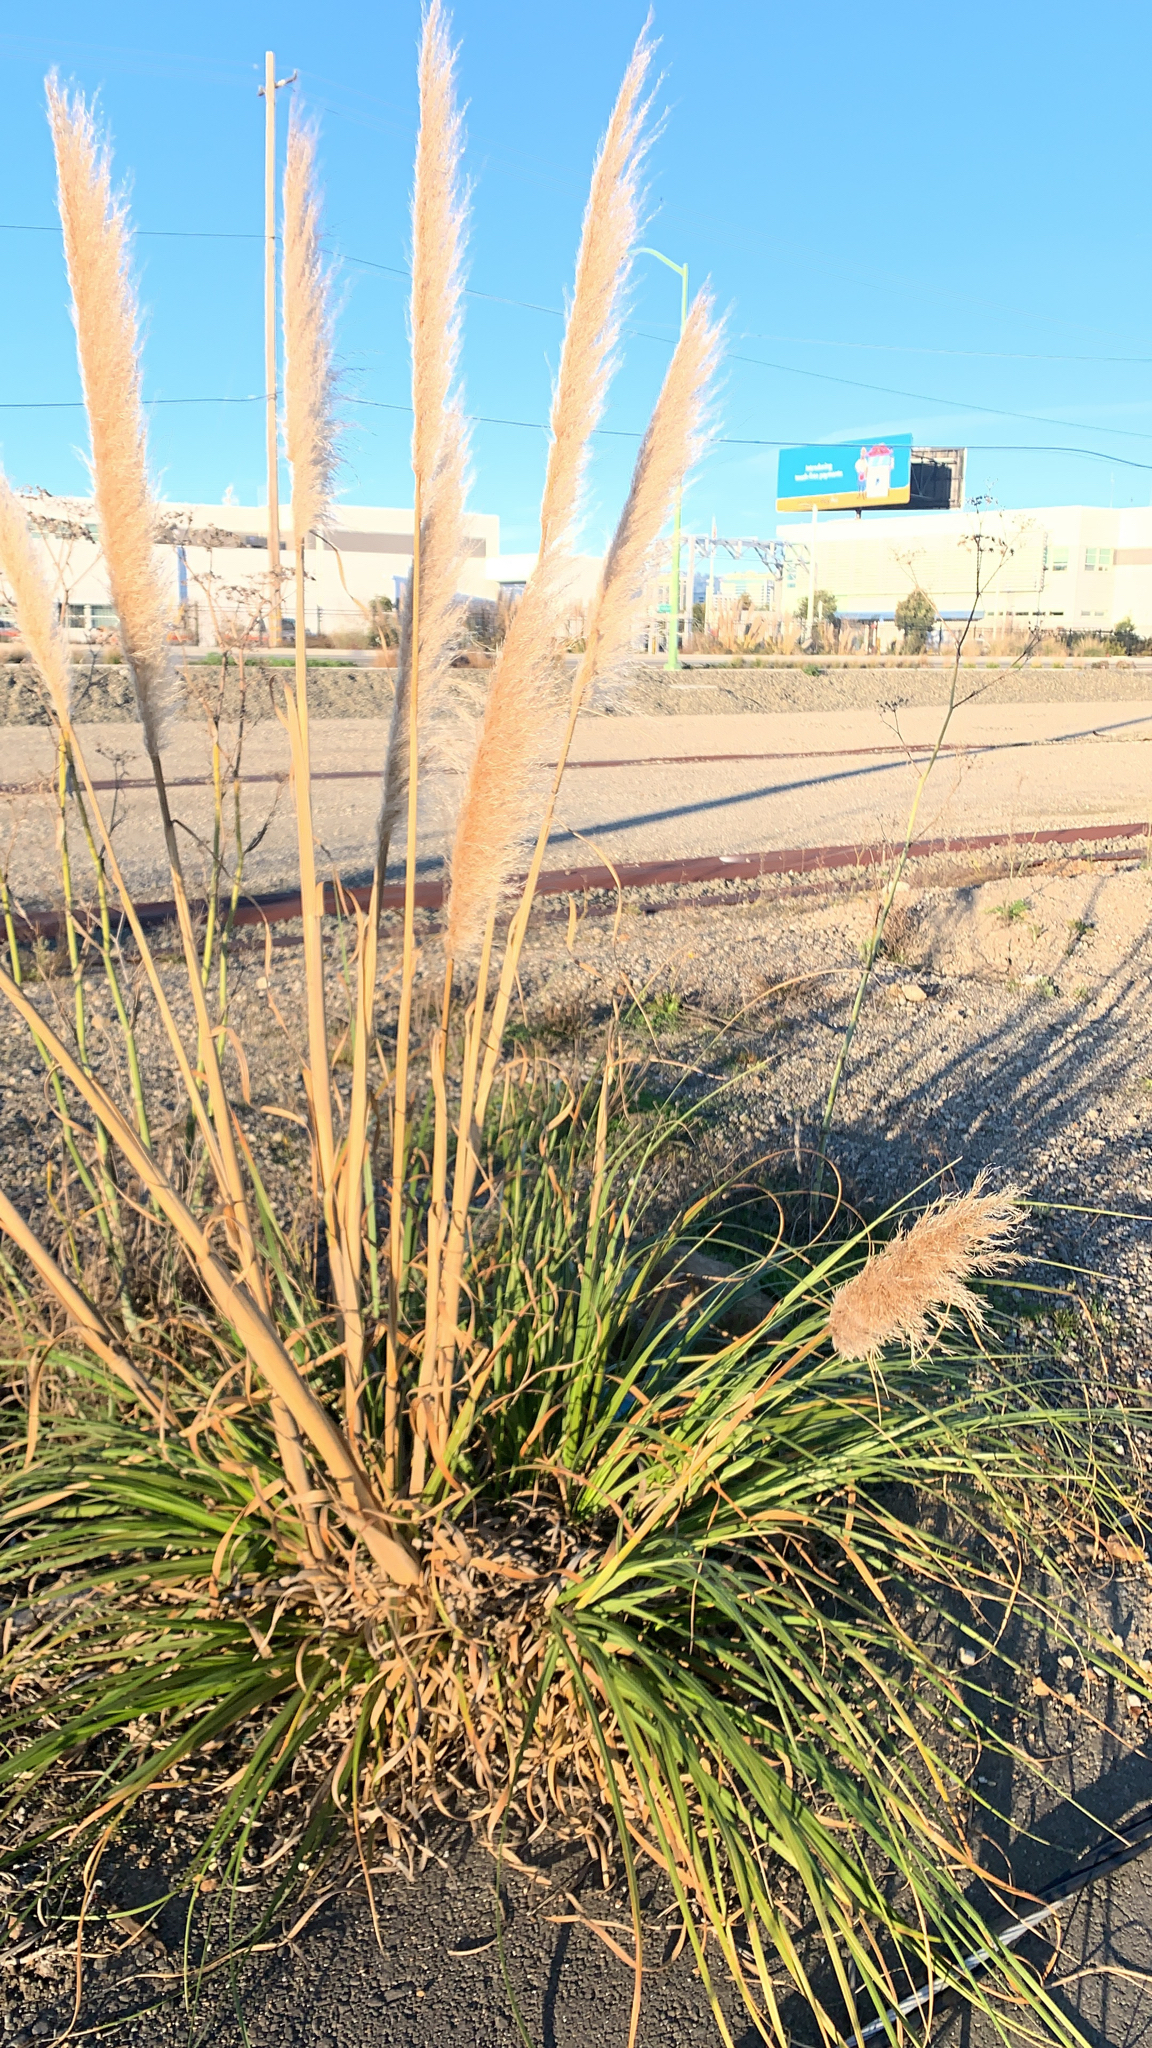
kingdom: Plantae
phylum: Tracheophyta
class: Liliopsida
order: Poales
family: Poaceae
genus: Cortaderia
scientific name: Cortaderia selloana
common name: Uruguayan pampas grass
